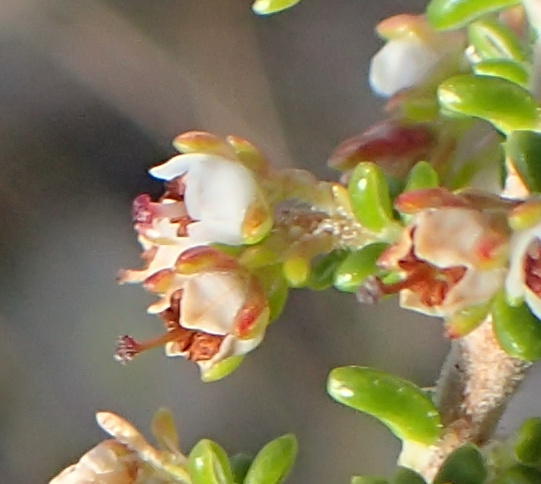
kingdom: Plantae
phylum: Tracheophyta
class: Magnoliopsida
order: Ericales
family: Ericaceae
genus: Erica
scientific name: Erica arenaria
